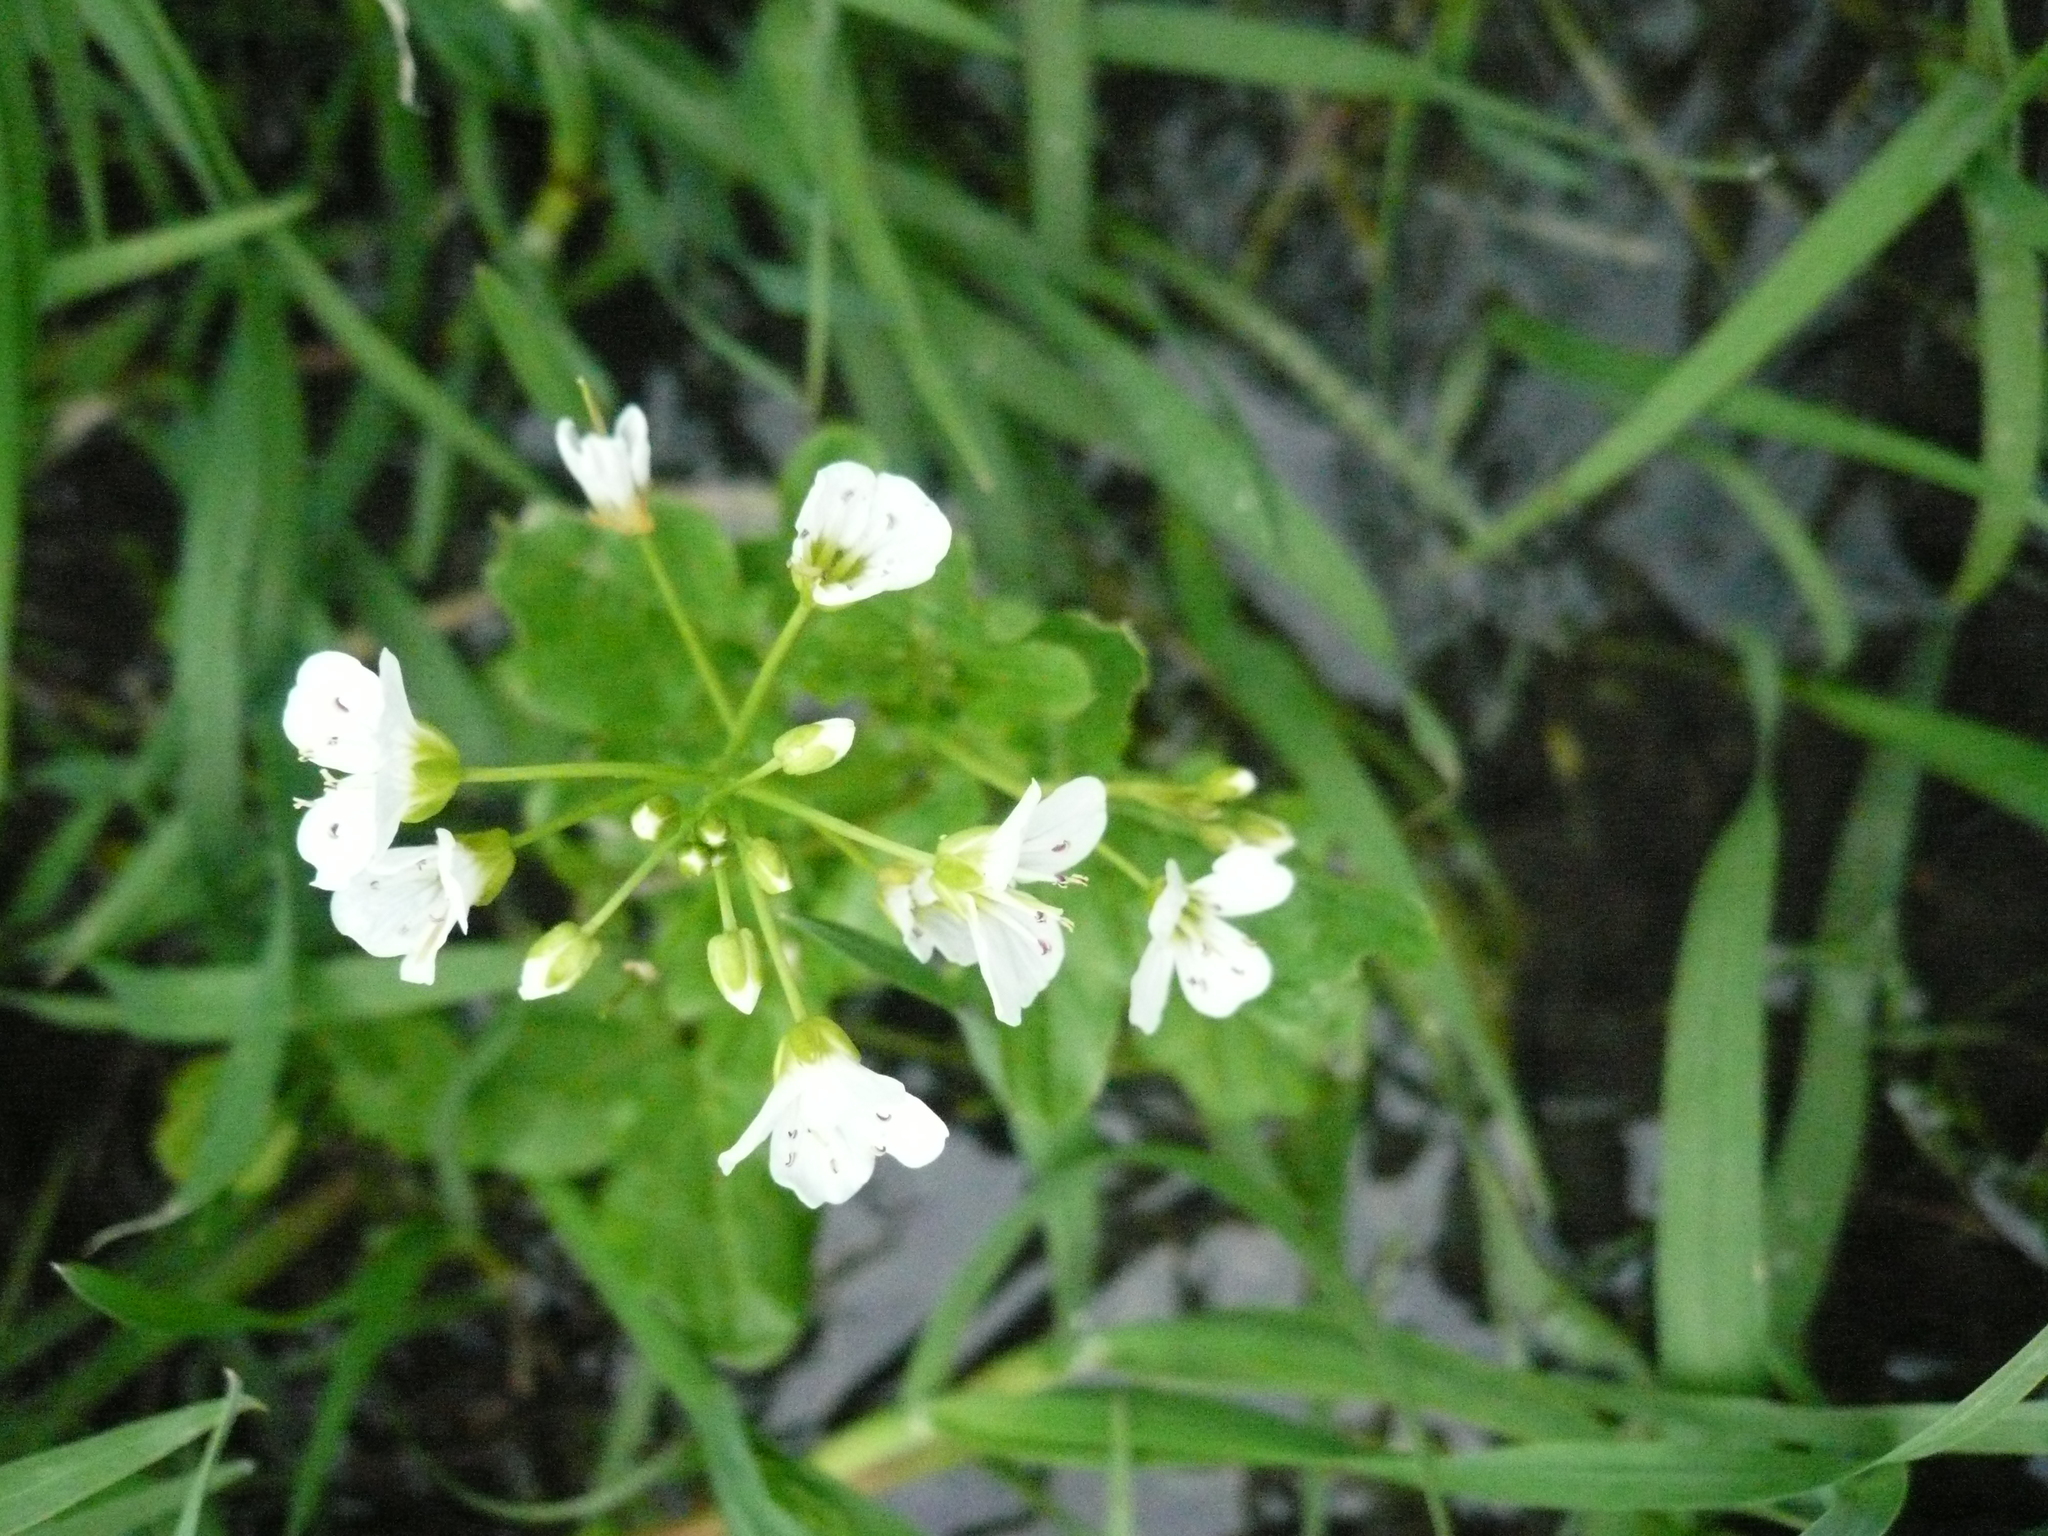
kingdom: Plantae
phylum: Tracheophyta
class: Magnoliopsida
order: Brassicales
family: Brassicaceae
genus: Cardamine
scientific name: Cardamine amara
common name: Large bitter-cress
